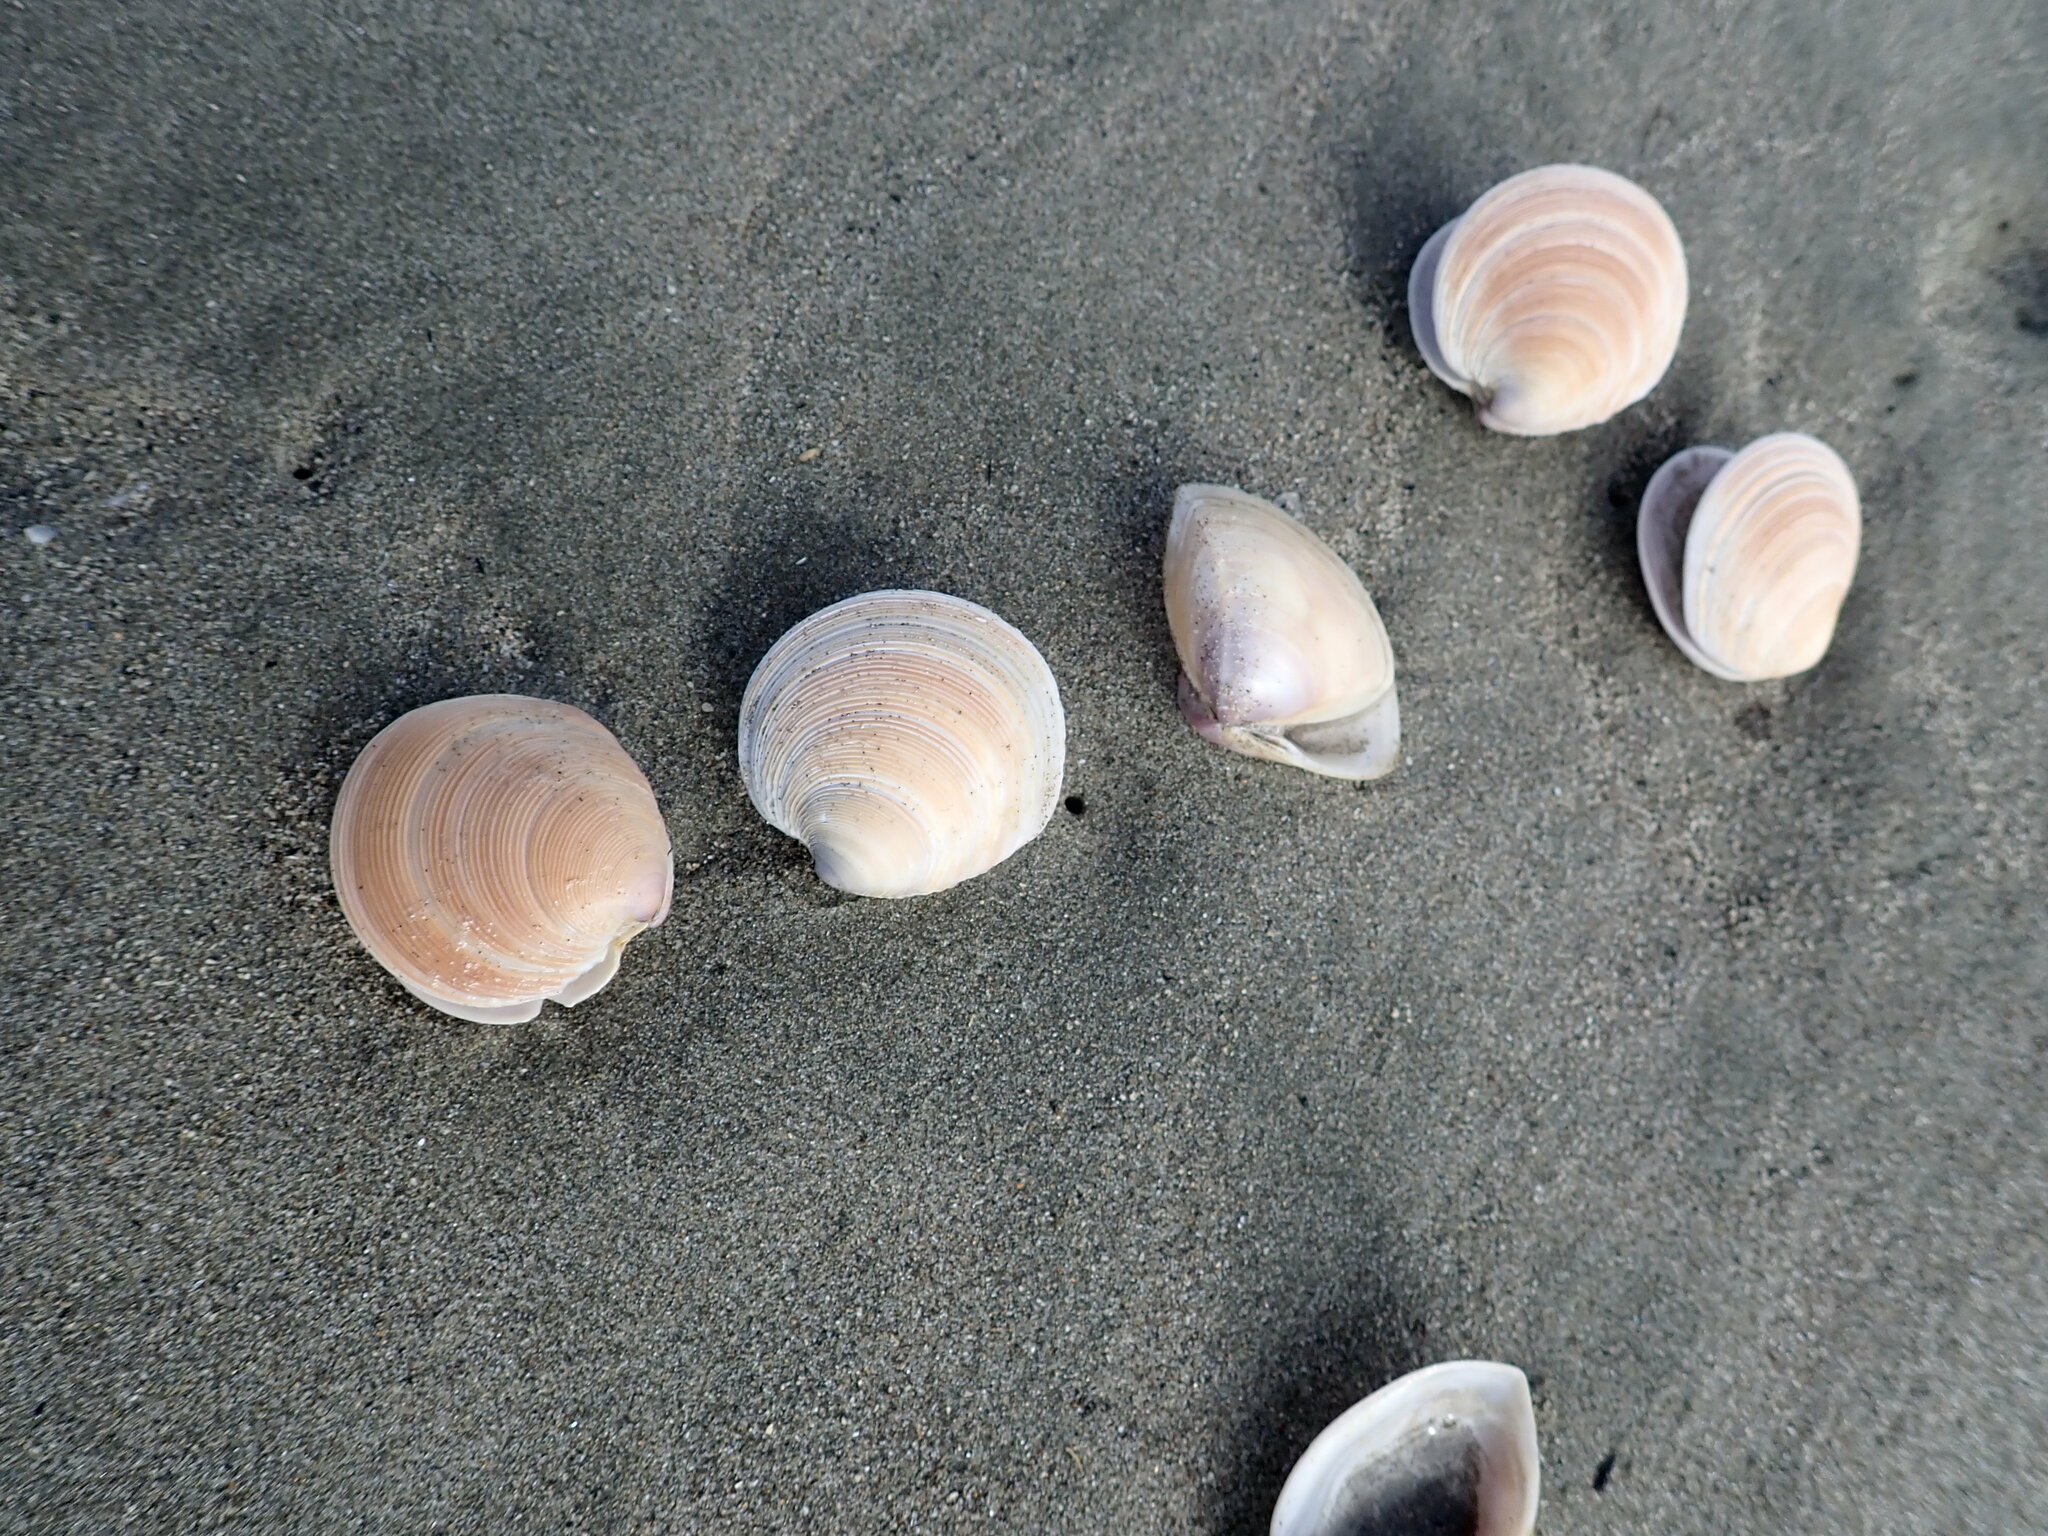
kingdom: Animalia
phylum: Mollusca
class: Bivalvia
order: Venerida
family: Veneridae
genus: Dosinia
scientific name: Dosinia anus
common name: Old-woman dosinia
